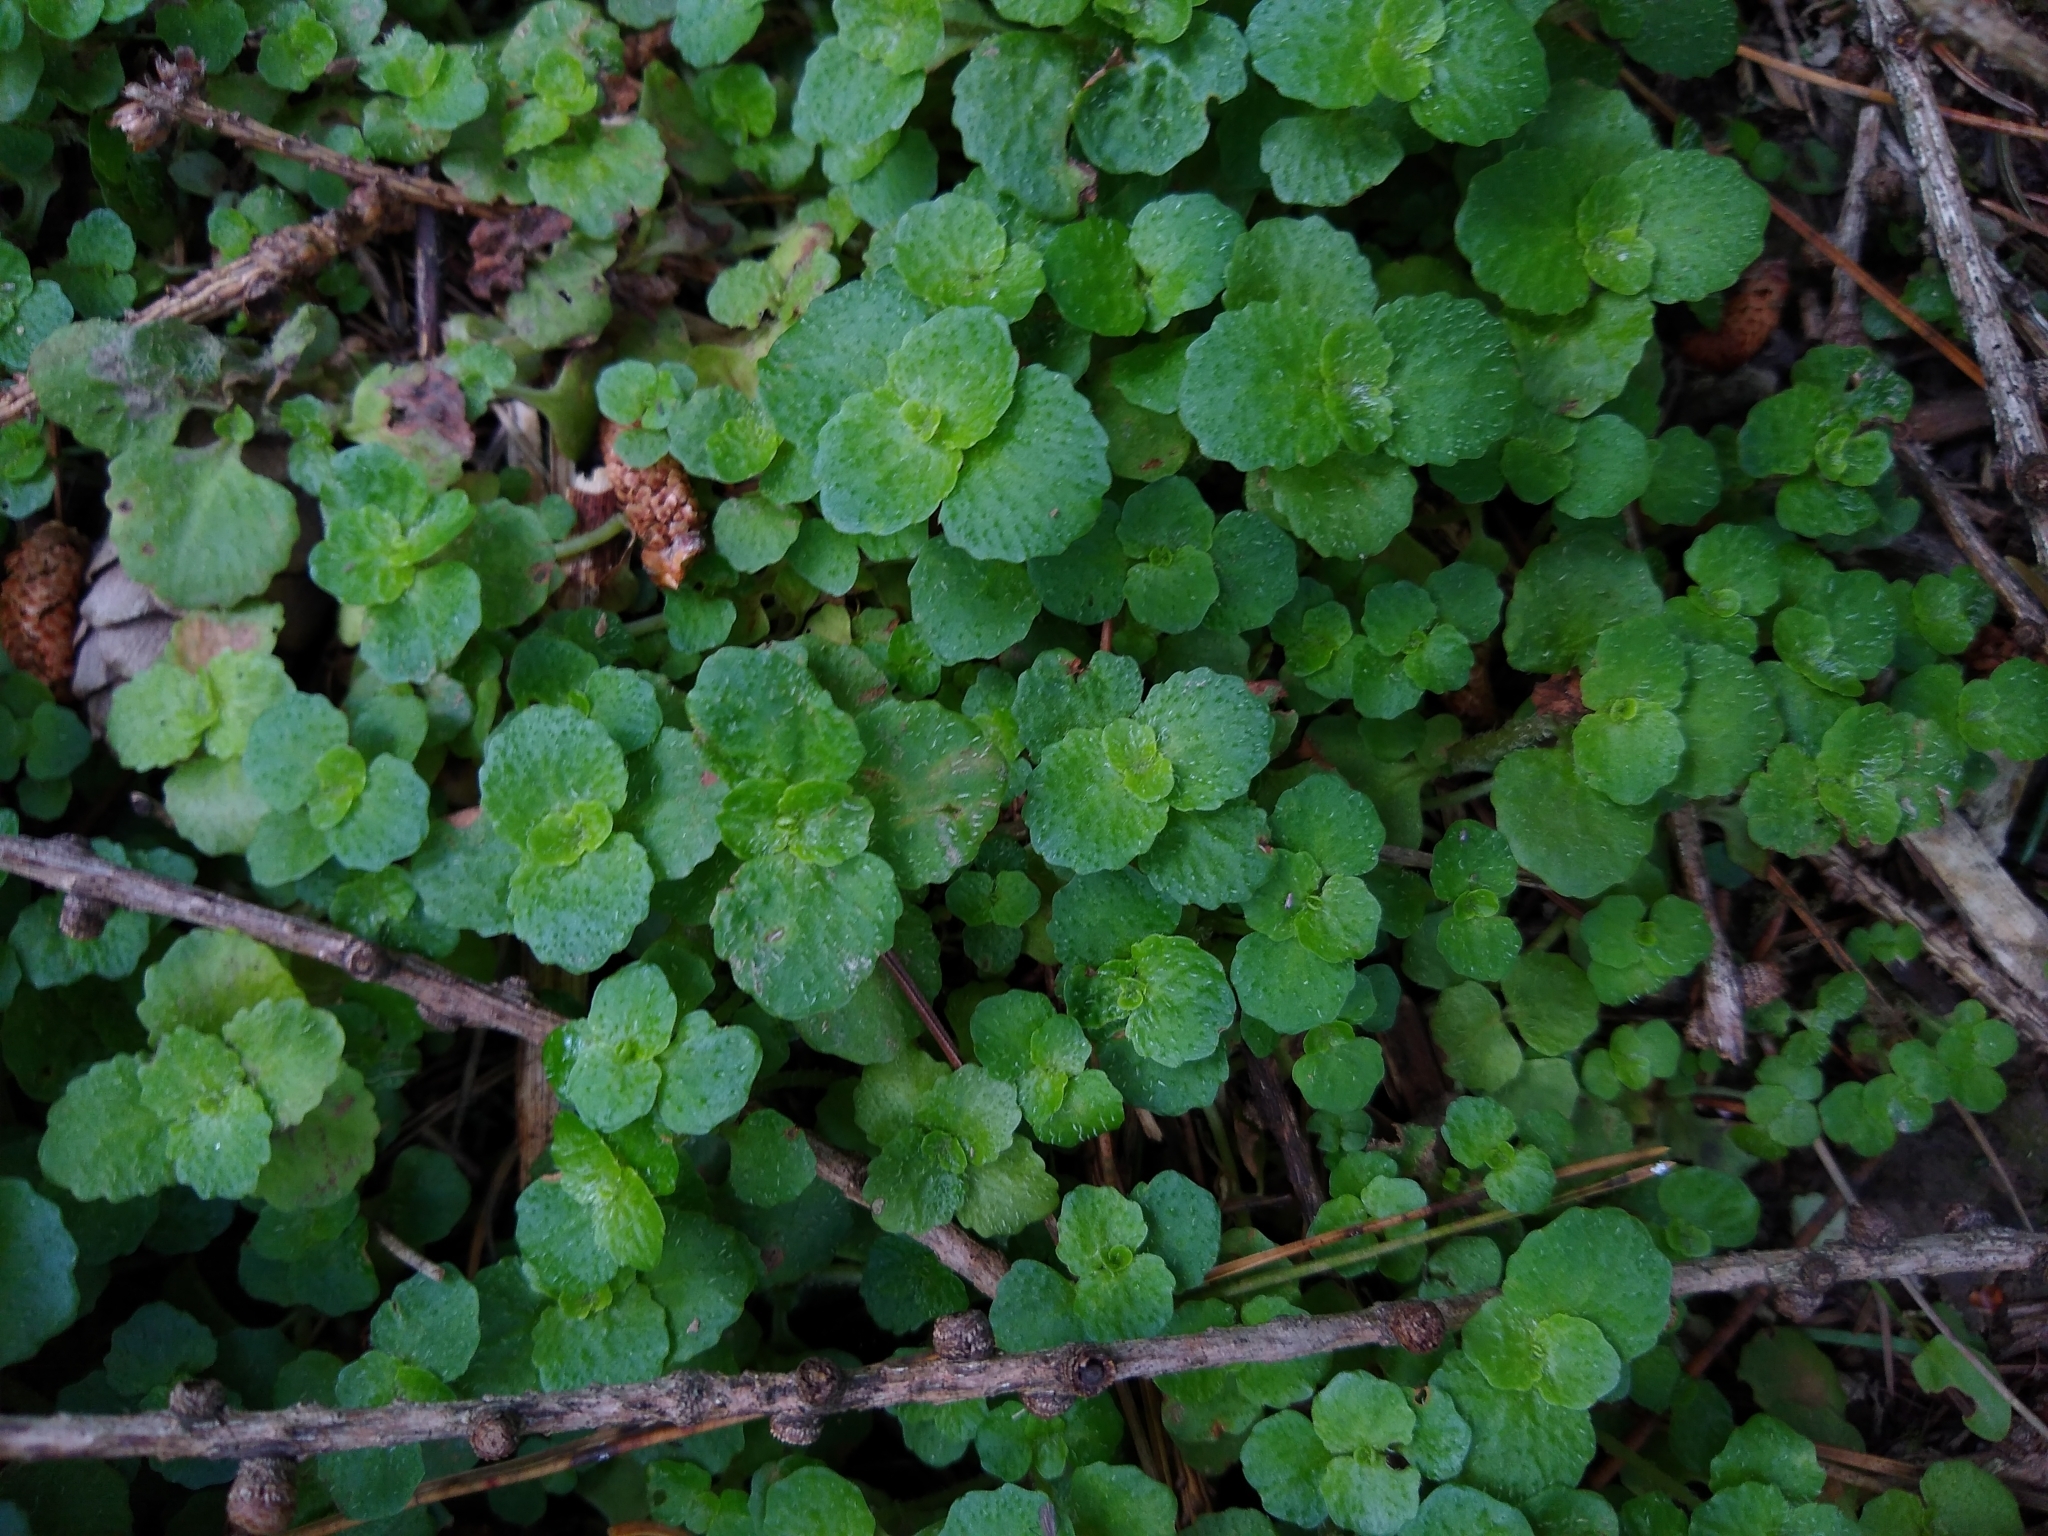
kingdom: Plantae
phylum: Tracheophyta
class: Magnoliopsida
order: Saxifragales
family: Saxifragaceae
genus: Chrysosplenium
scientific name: Chrysosplenium oppositifolium
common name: Opposite-leaved golden-saxifrage
